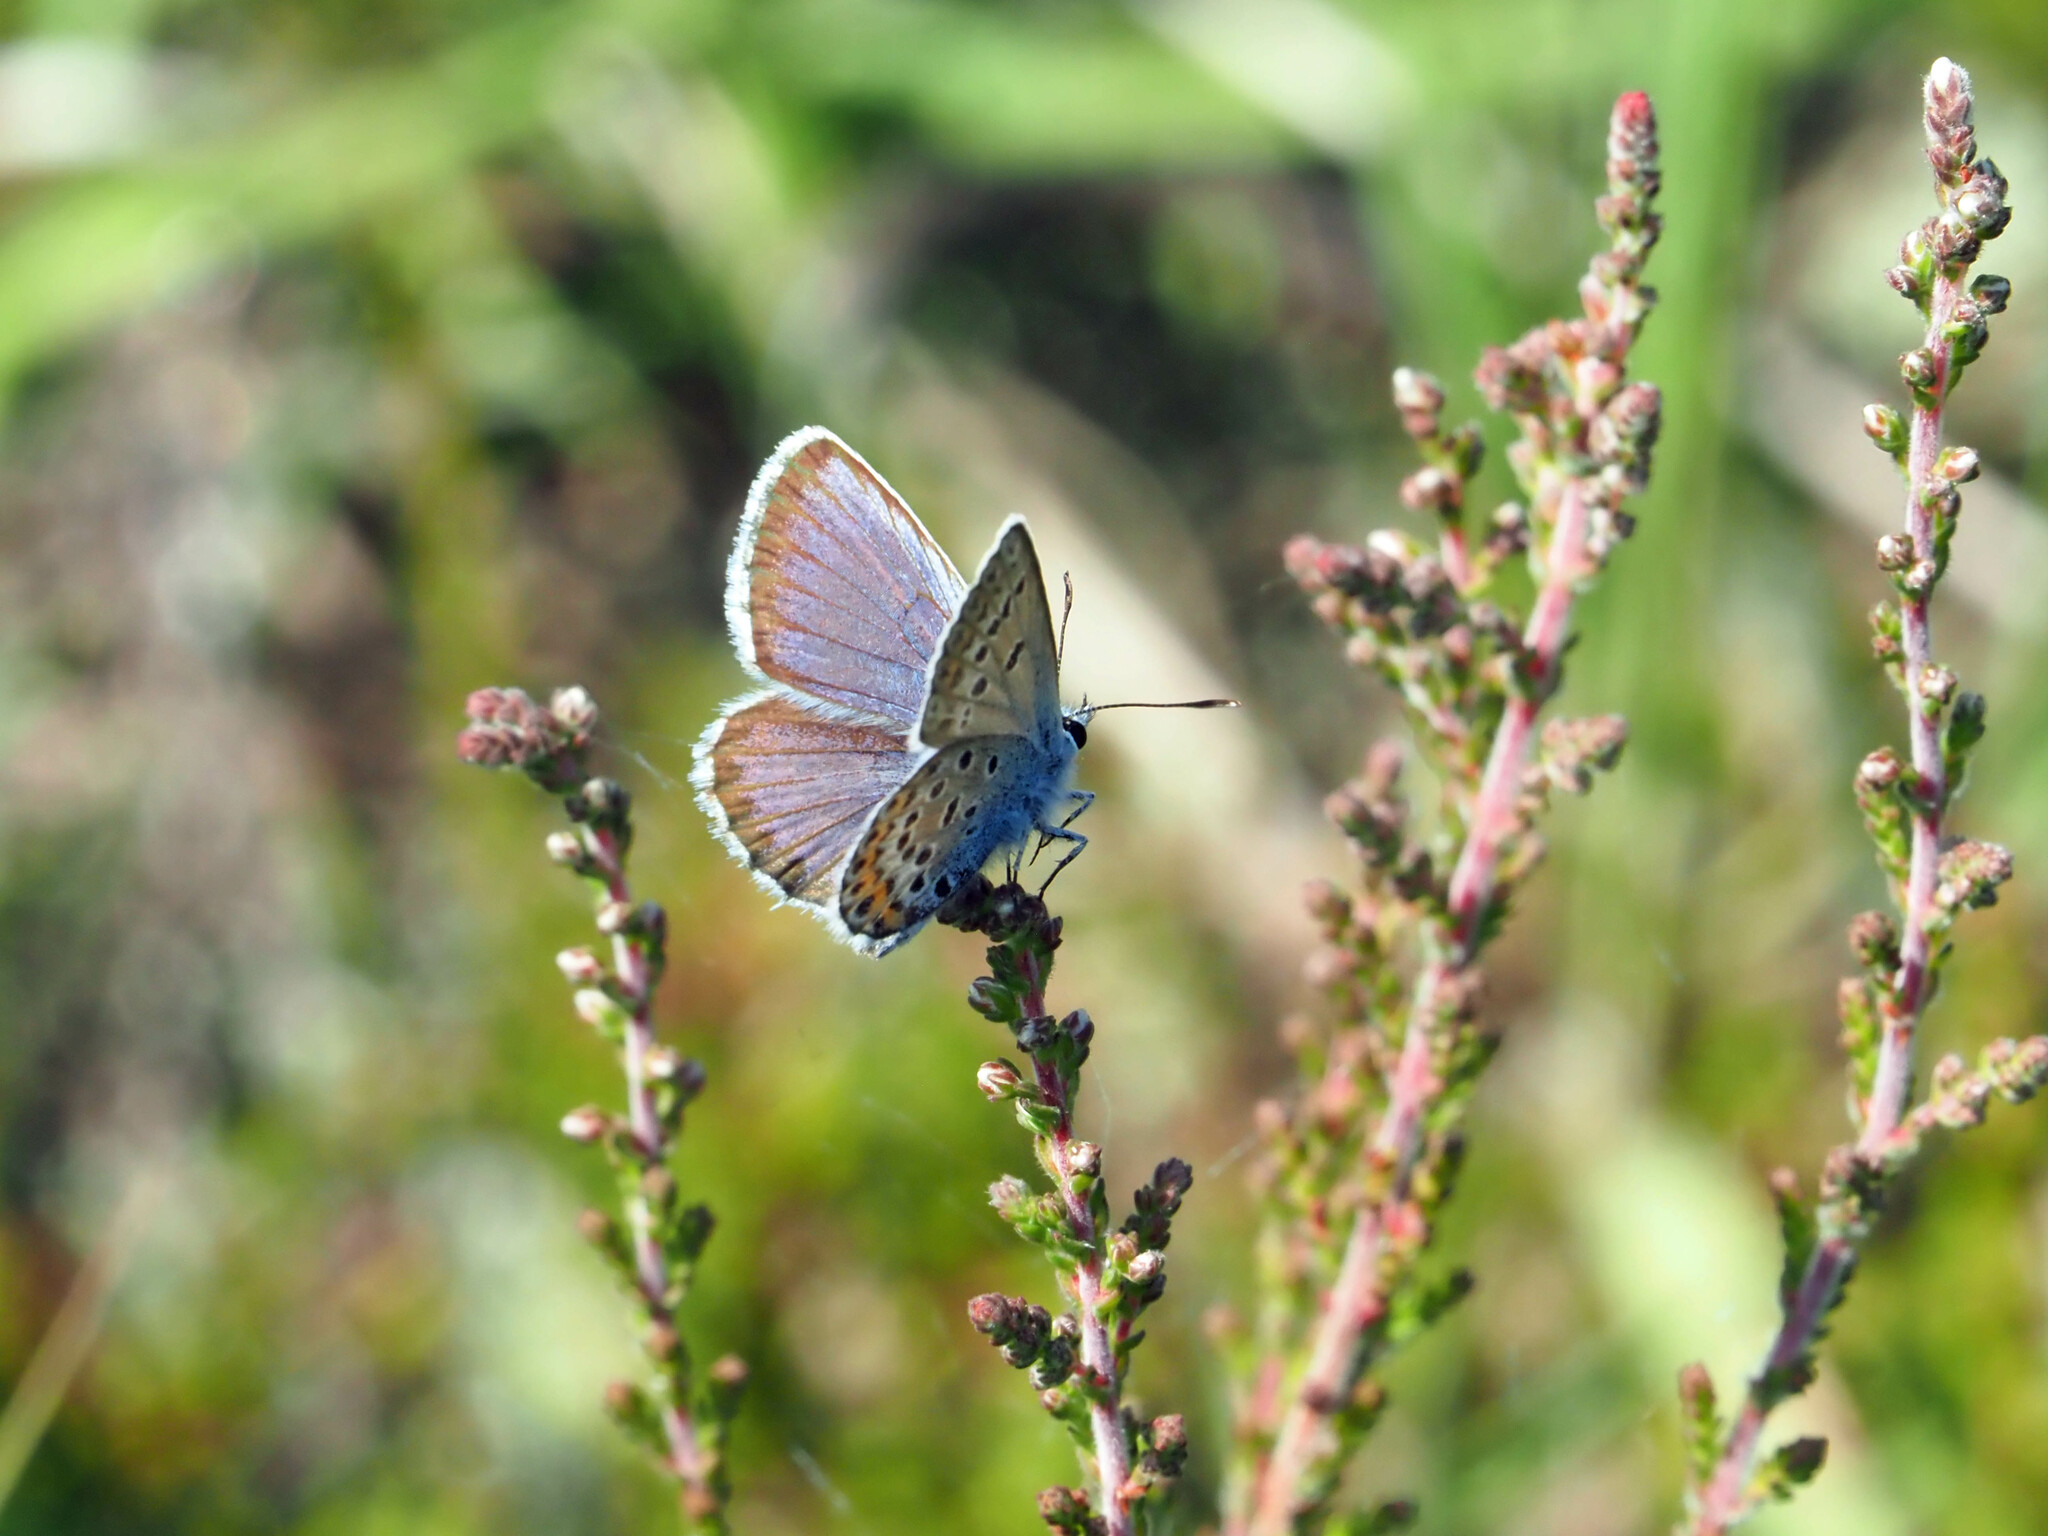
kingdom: Animalia
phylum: Arthropoda
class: Insecta
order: Lepidoptera
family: Lycaenidae
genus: Plebejus
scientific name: Plebejus argus
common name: Silver-studded blue
